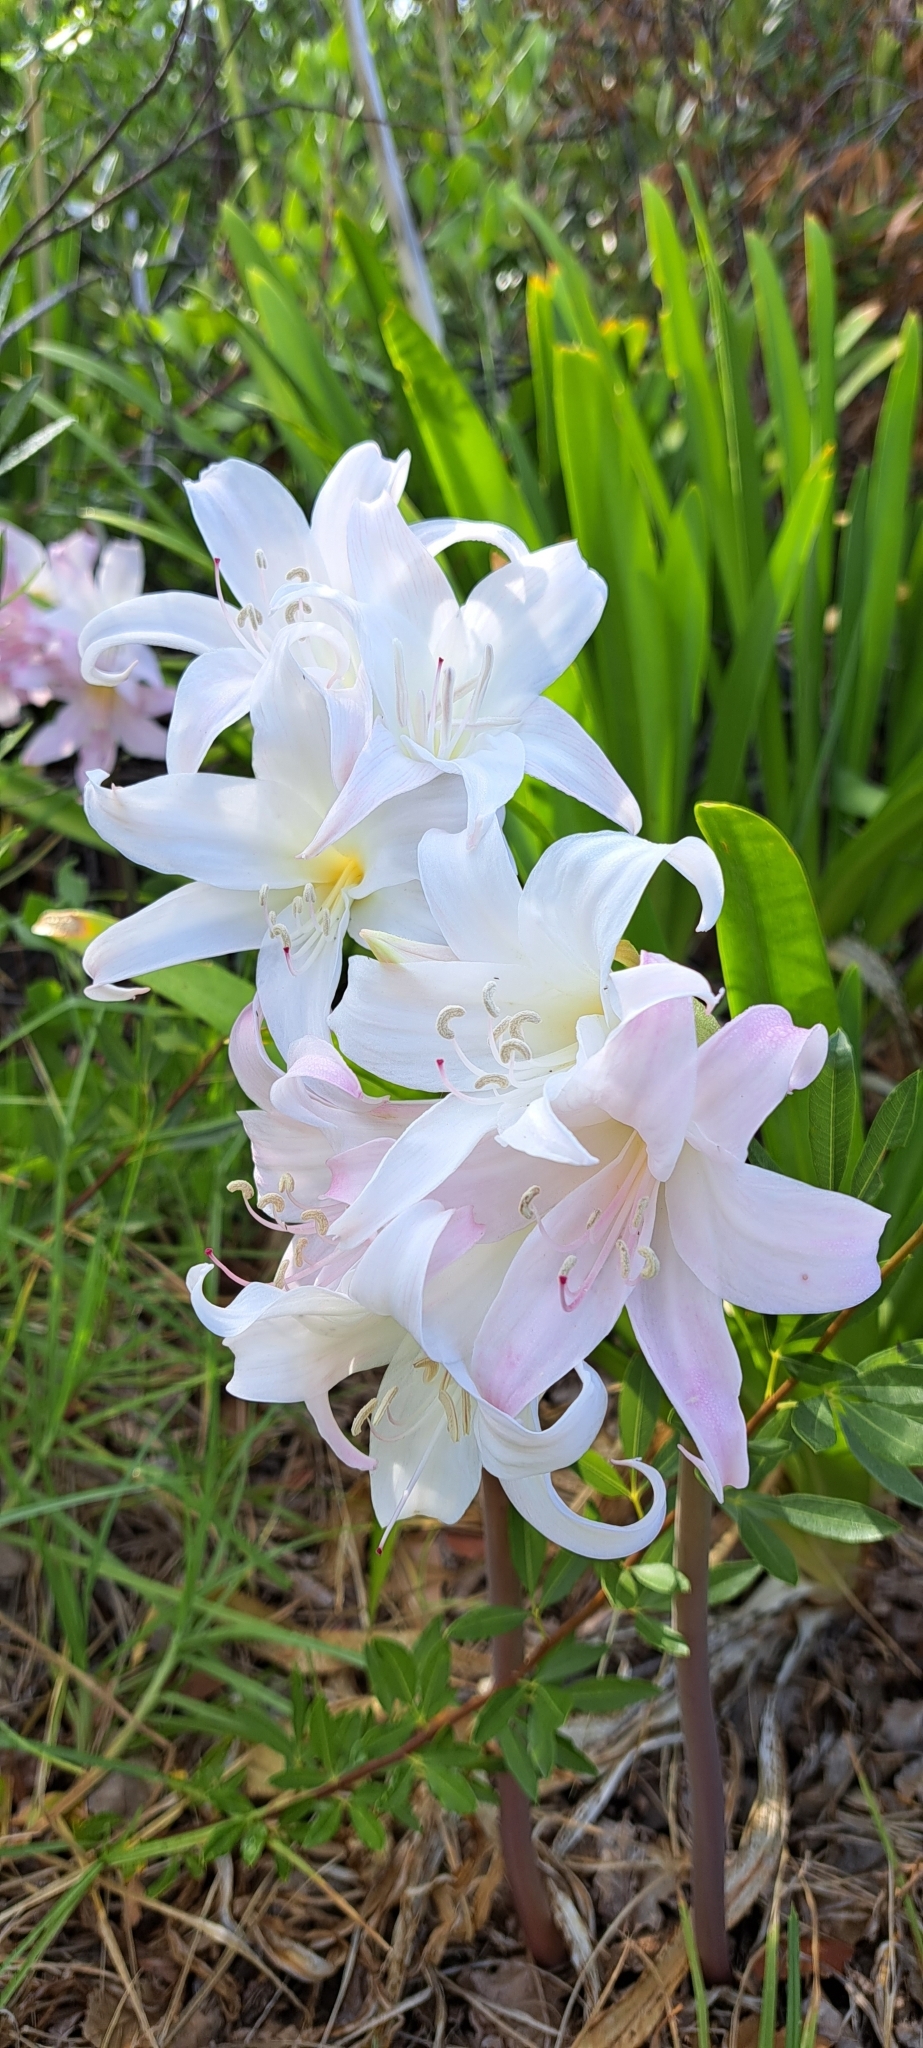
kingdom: Plantae
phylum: Tracheophyta
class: Liliopsida
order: Asparagales
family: Amaryllidaceae
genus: Amaryllis
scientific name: Amaryllis belladonna
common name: Jersey lily
